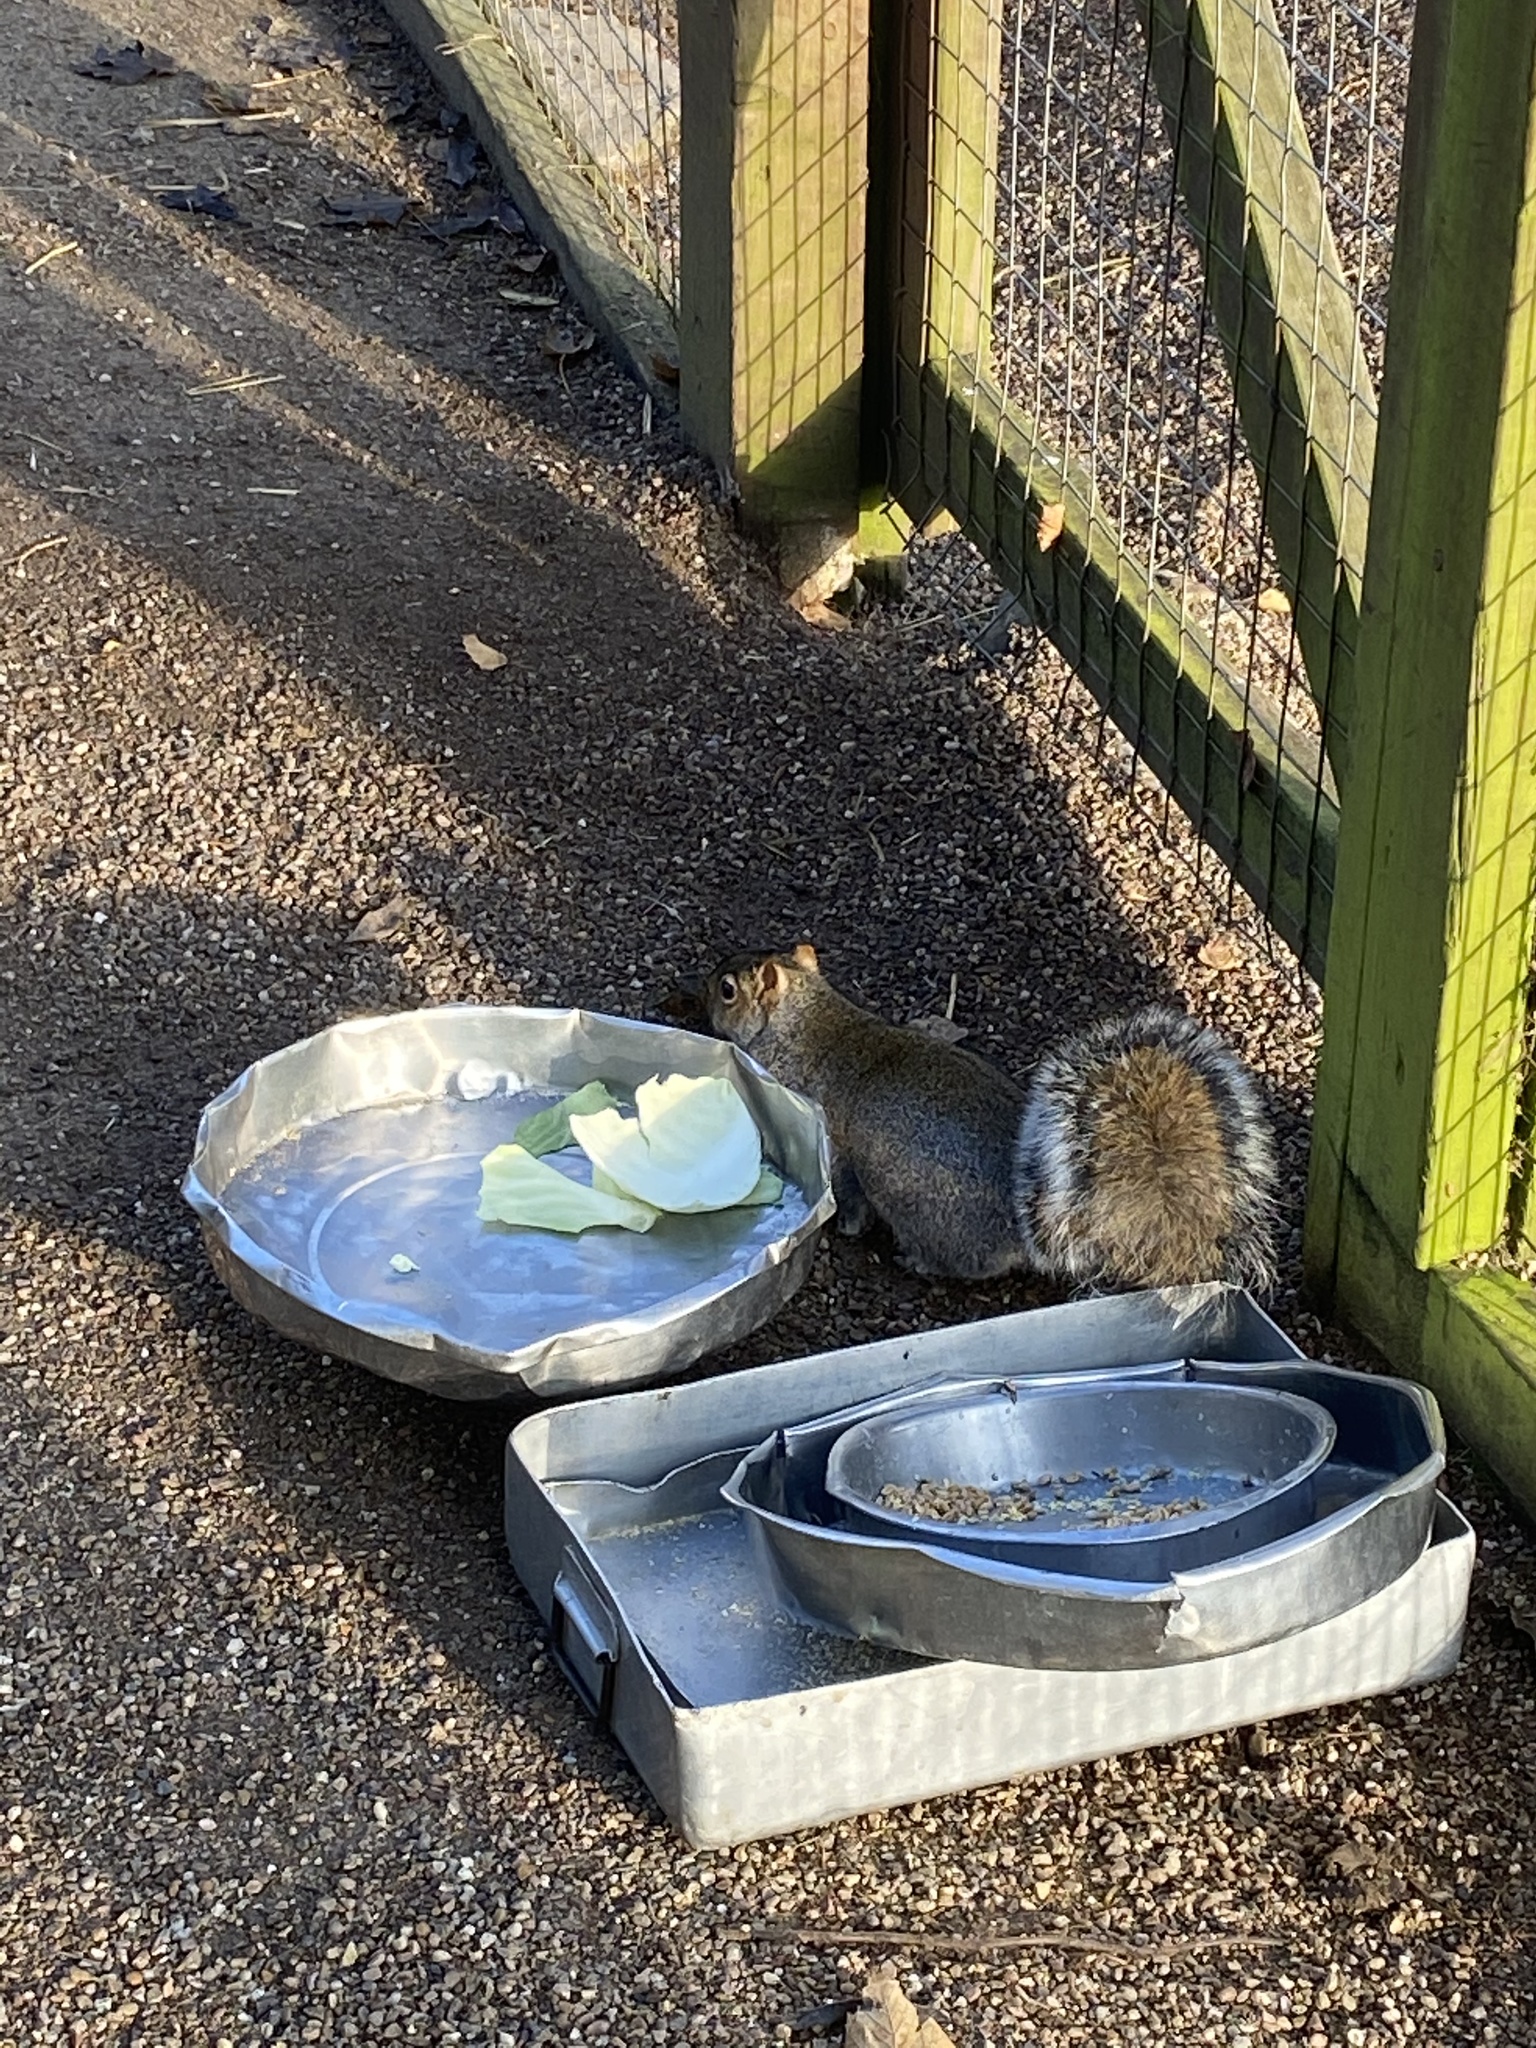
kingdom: Animalia
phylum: Chordata
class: Mammalia
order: Rodentia
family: Sciuridae
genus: Sciurus
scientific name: Sciurus carolinensis
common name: Eastern gray squirrel
